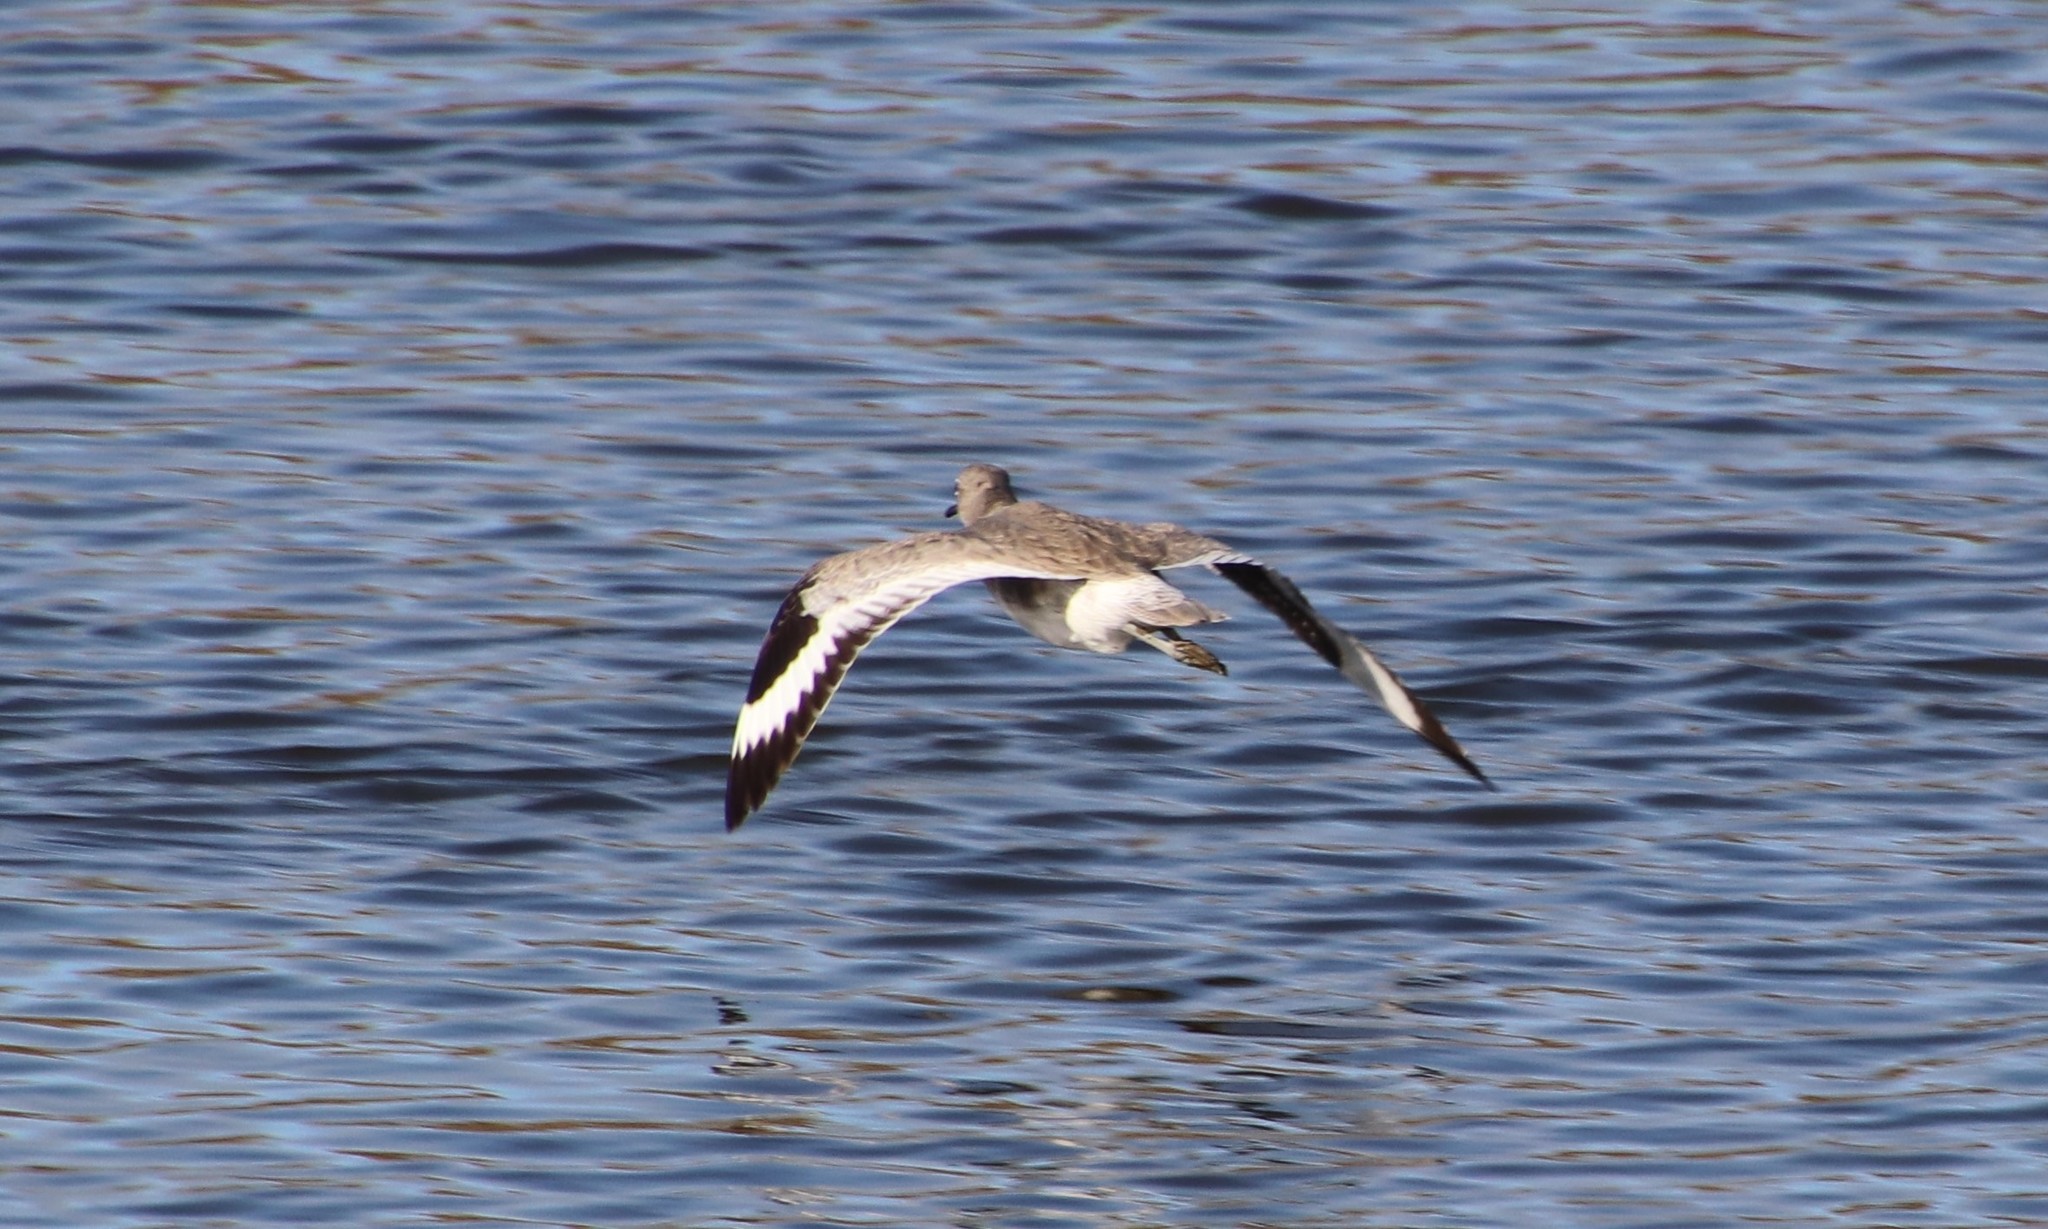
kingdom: Animalia
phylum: Chordata
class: Aves
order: Charadriiformes
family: Scolopacidae
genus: Tringa
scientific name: Tringa semipalmata
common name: Willet
